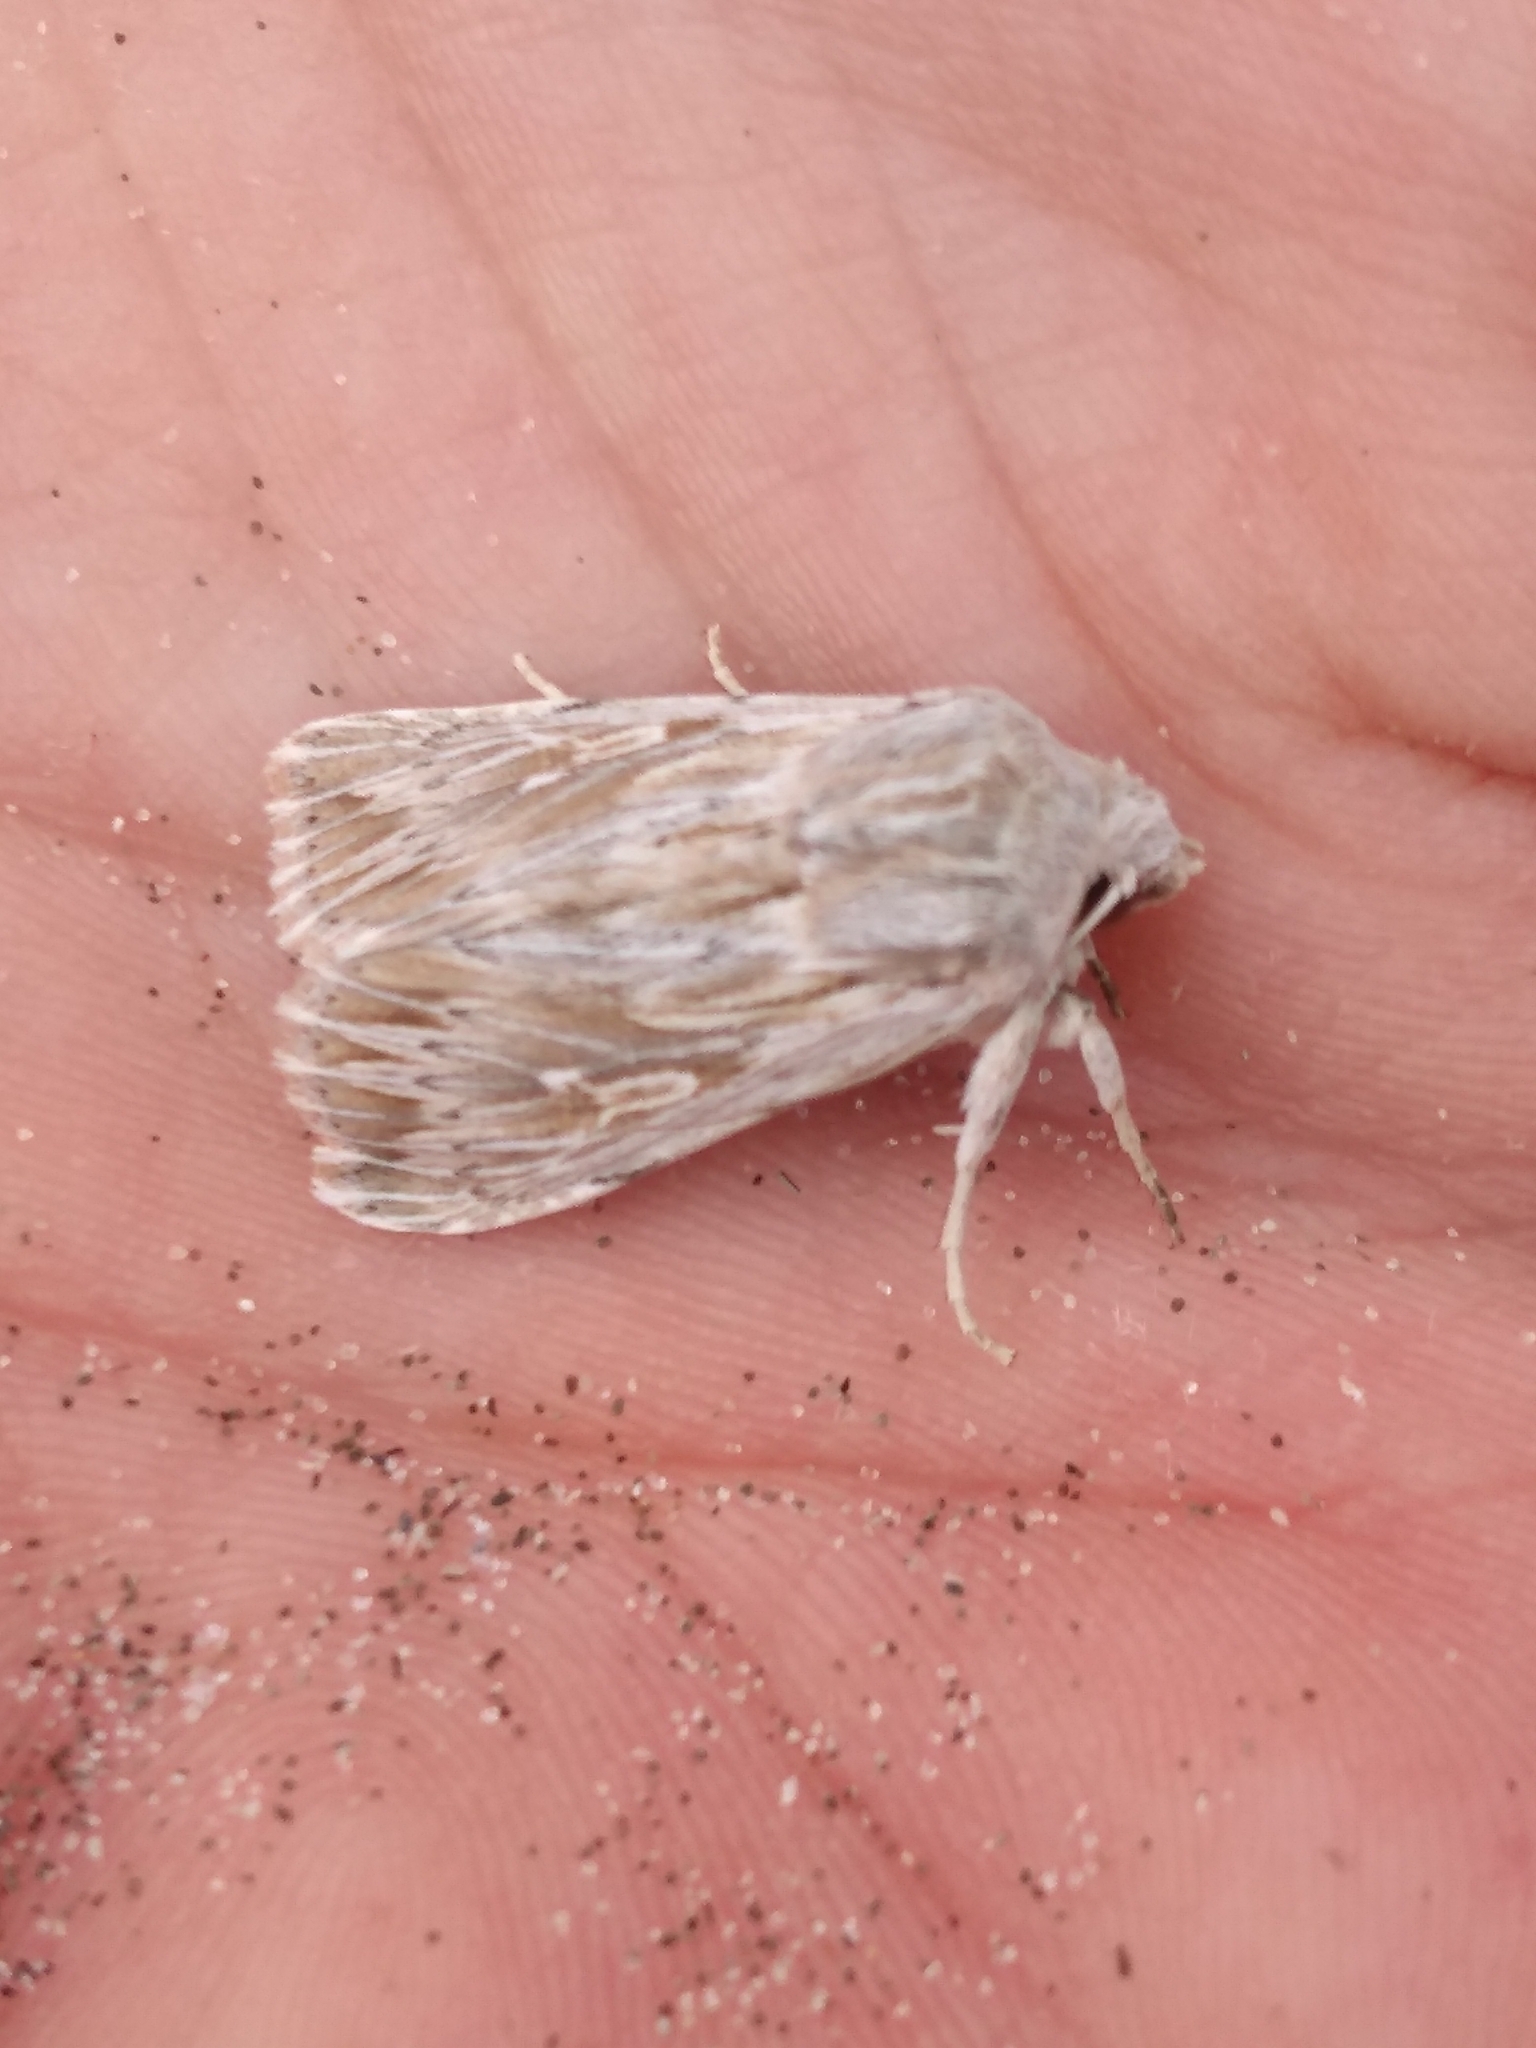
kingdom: Animalia
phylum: Arthropoda
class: Insecta
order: Lepidoptera
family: Noctuidae
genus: Persectania
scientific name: Persectania aversa
